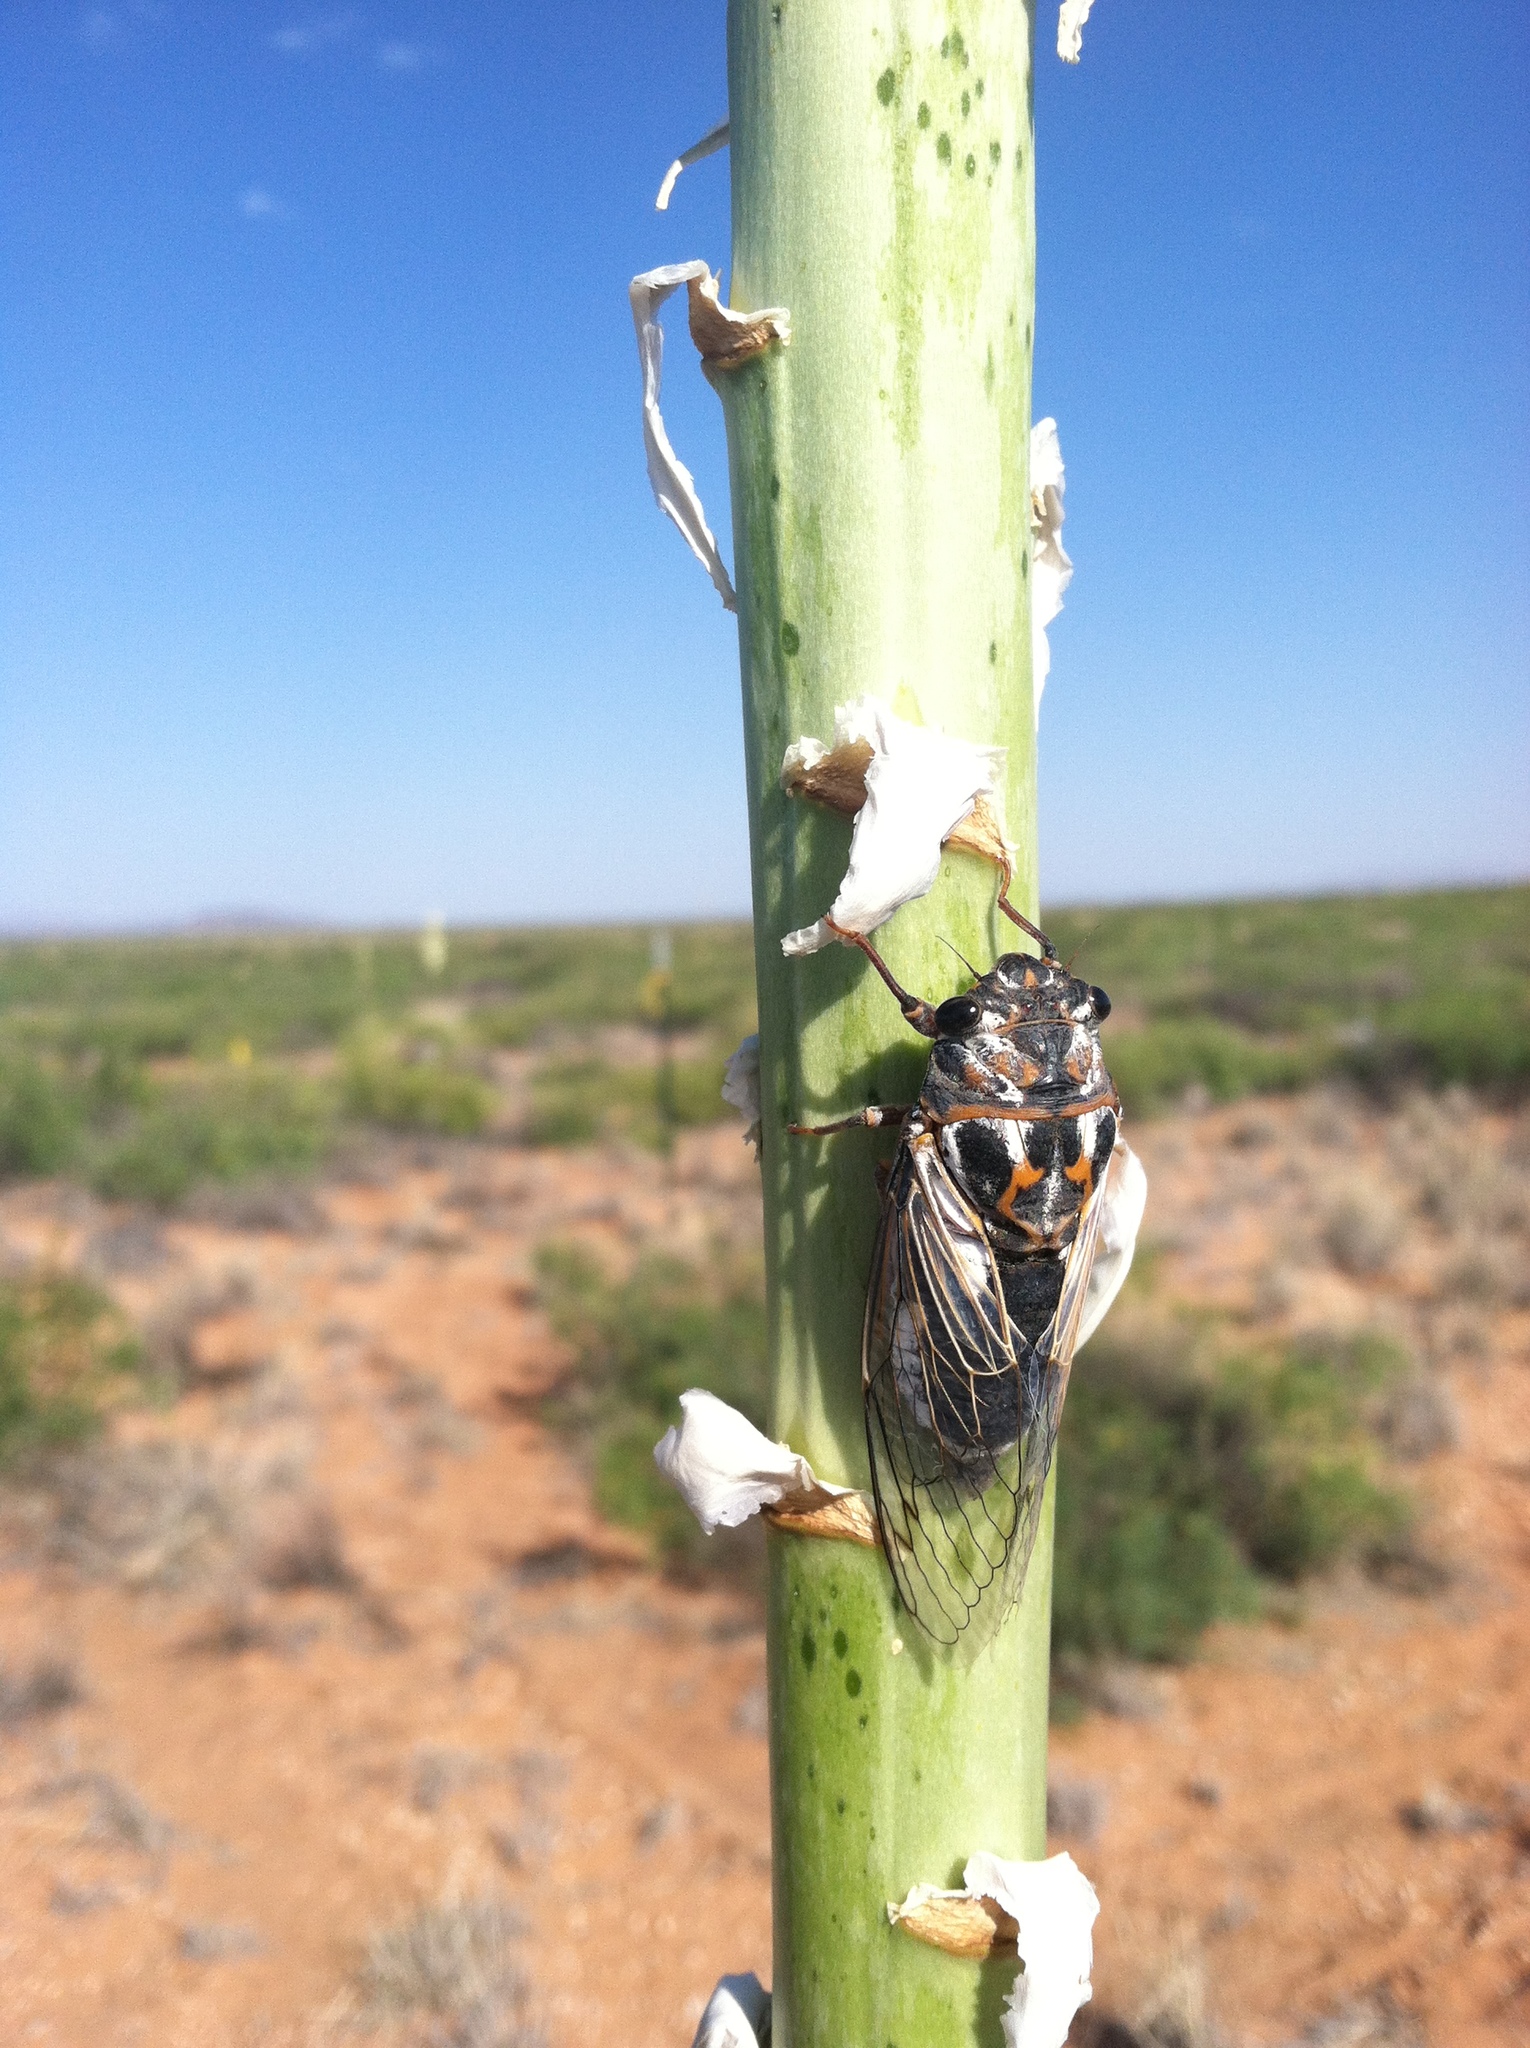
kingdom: Animalia
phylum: Arthropoda
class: Insecta
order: Hemiptera
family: Cicadidae
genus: Hadoa
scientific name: Hadoa townsendii
